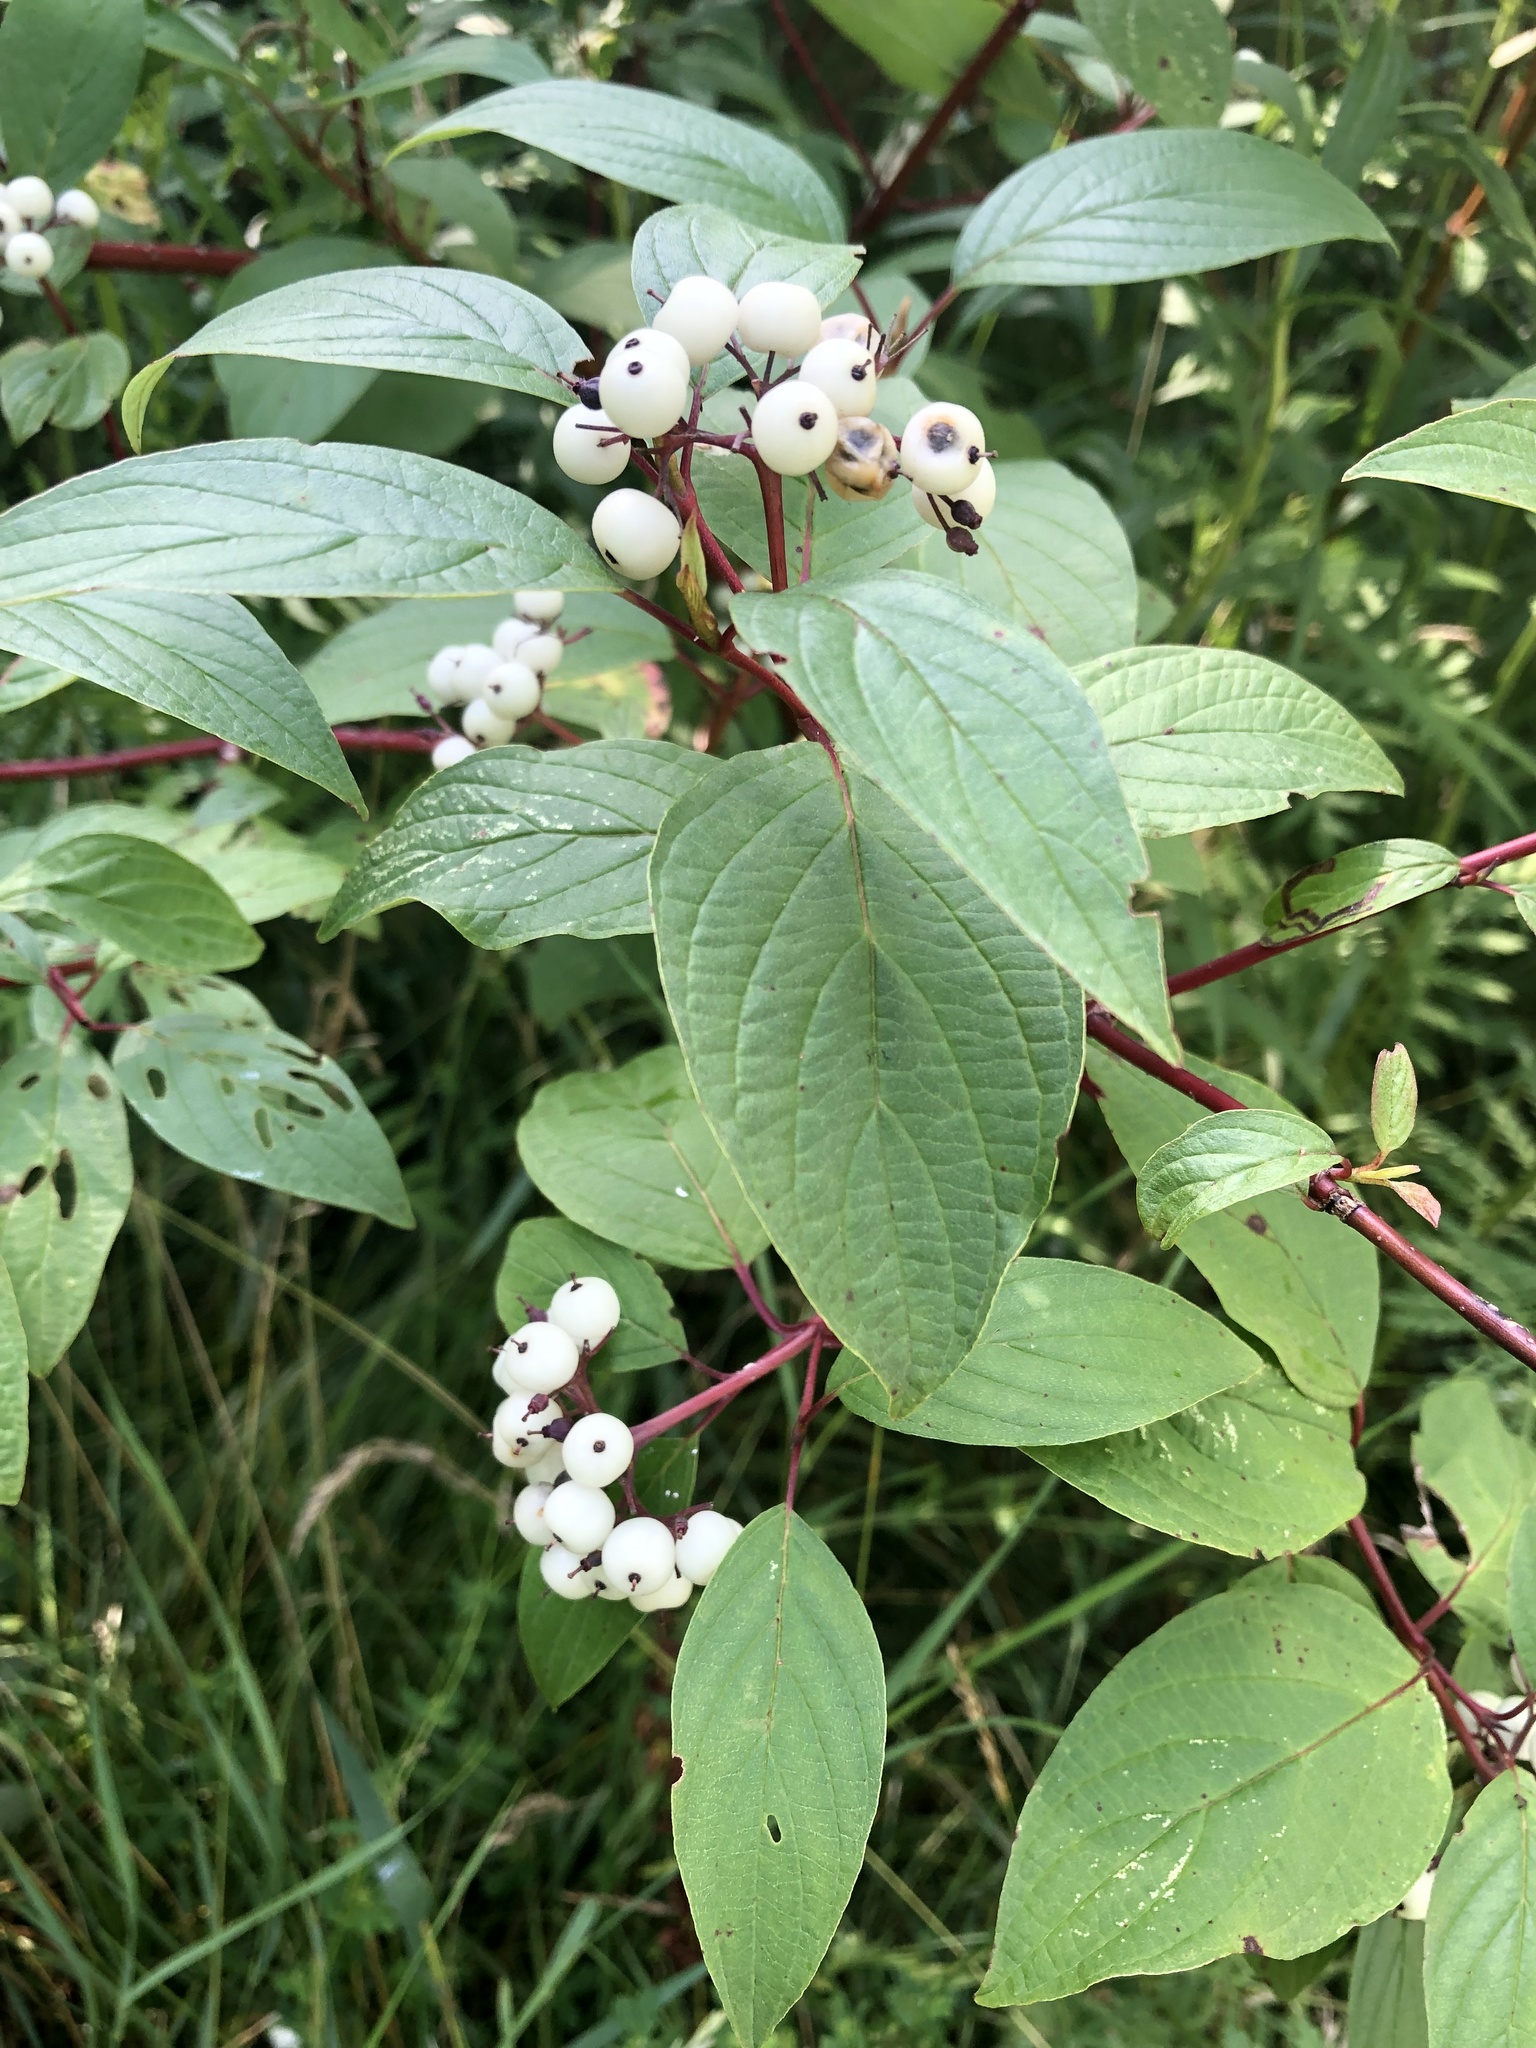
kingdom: Plantae
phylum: Tracheophyta
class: Magnoliopsida
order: Cornales
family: Cornaceae
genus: Cornus
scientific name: Cornus sericea
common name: Red-osier dogwood
